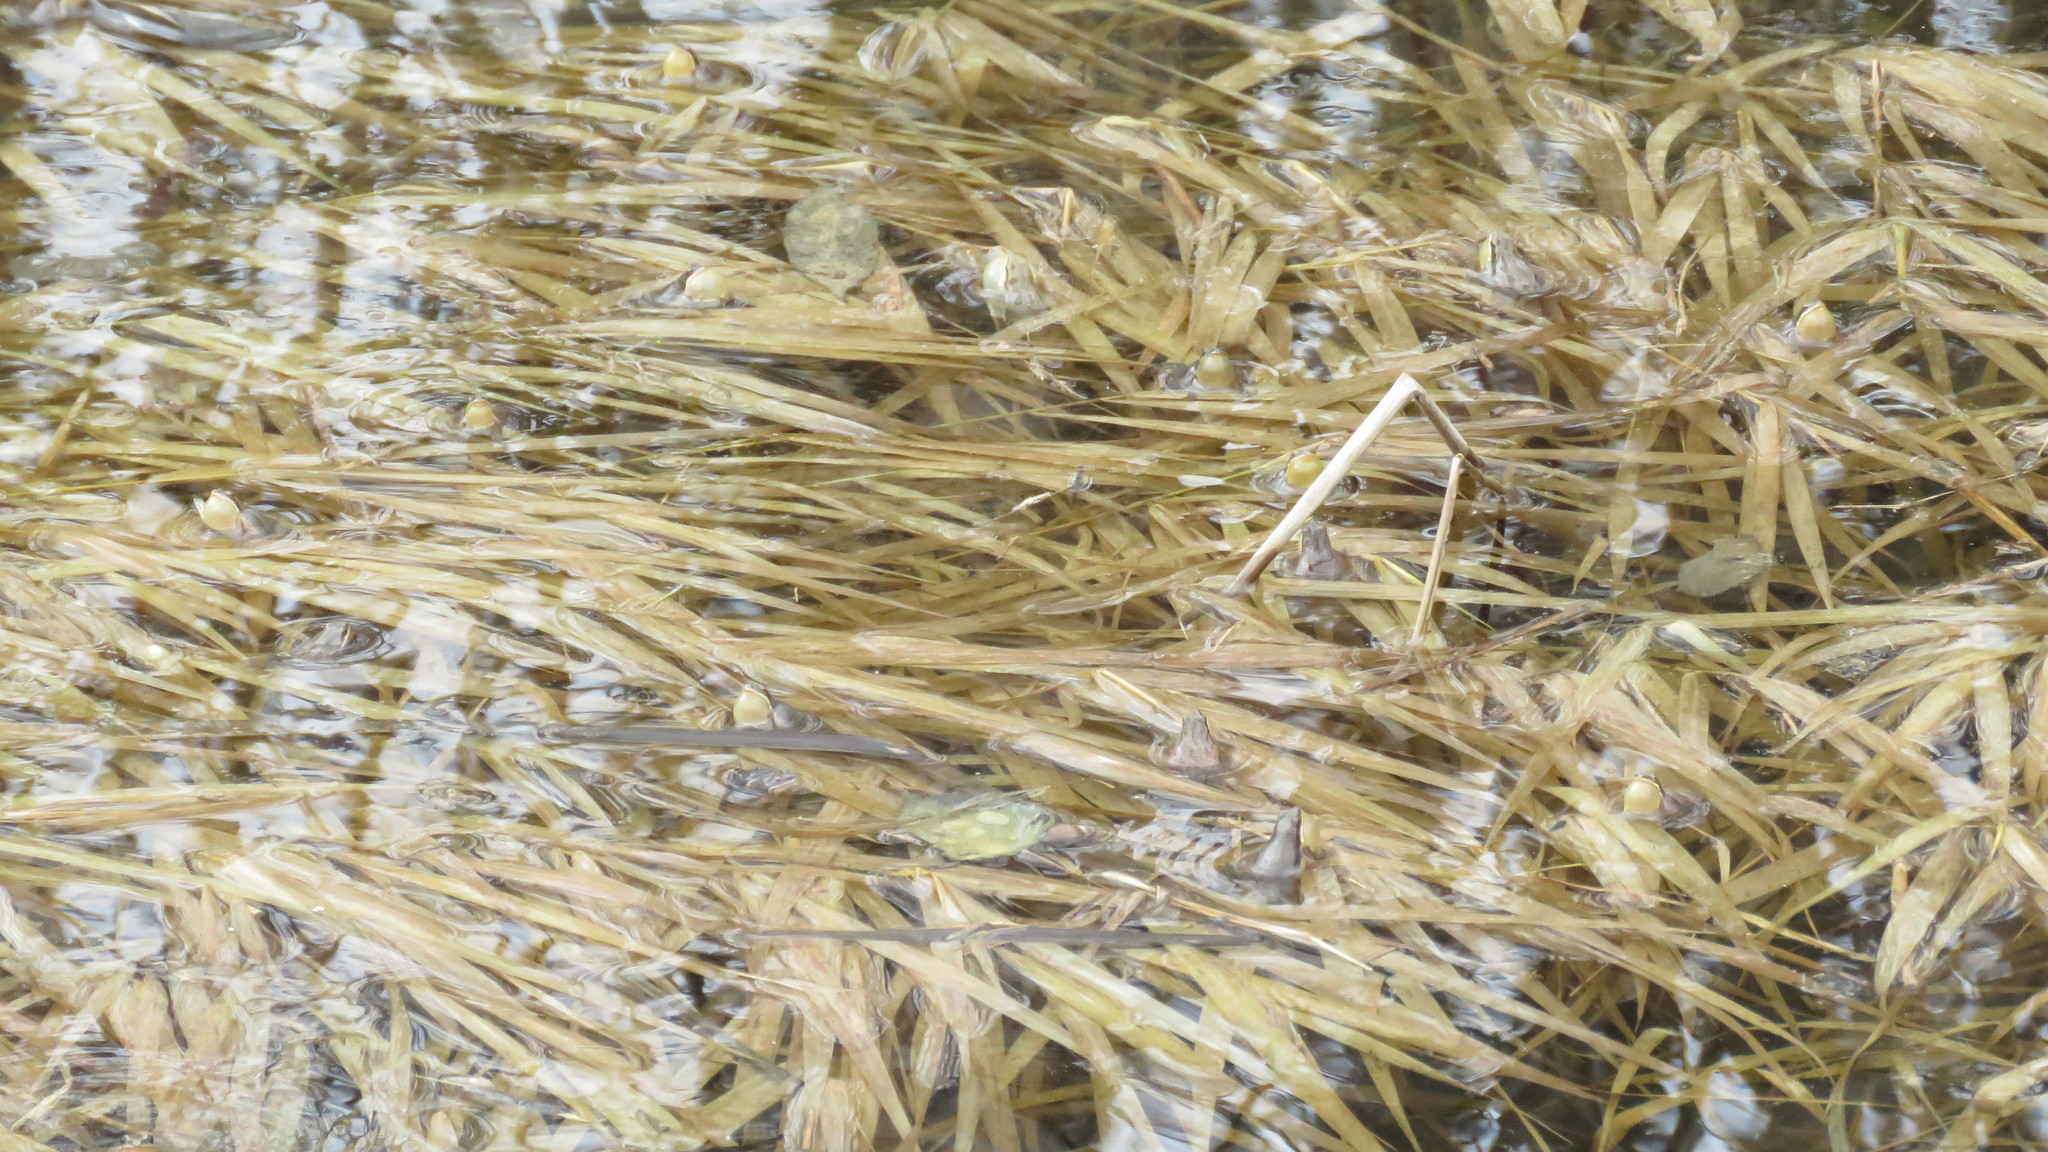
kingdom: Animalia
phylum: Chordata
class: Amphibia
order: Anura
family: Hylidae
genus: Pseudacris
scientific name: Pseudacris maculata
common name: Boreal chorus frog
